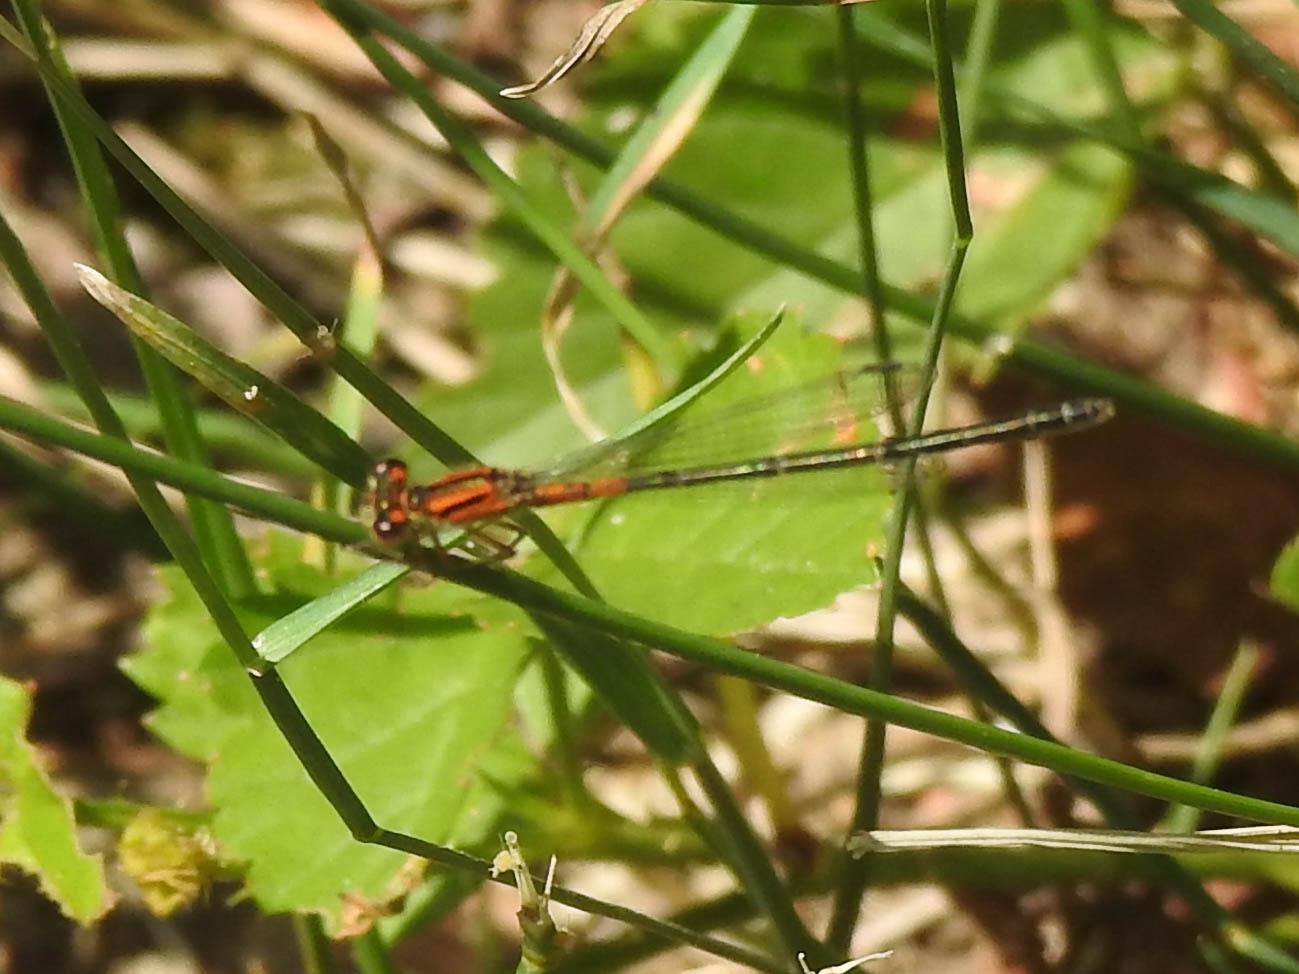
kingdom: Animalia
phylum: Arthropoda
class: Insecta
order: Odonata
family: Coenagrionidae
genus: Ischnura
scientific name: Ischnura verticalis
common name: Eastern forktail
